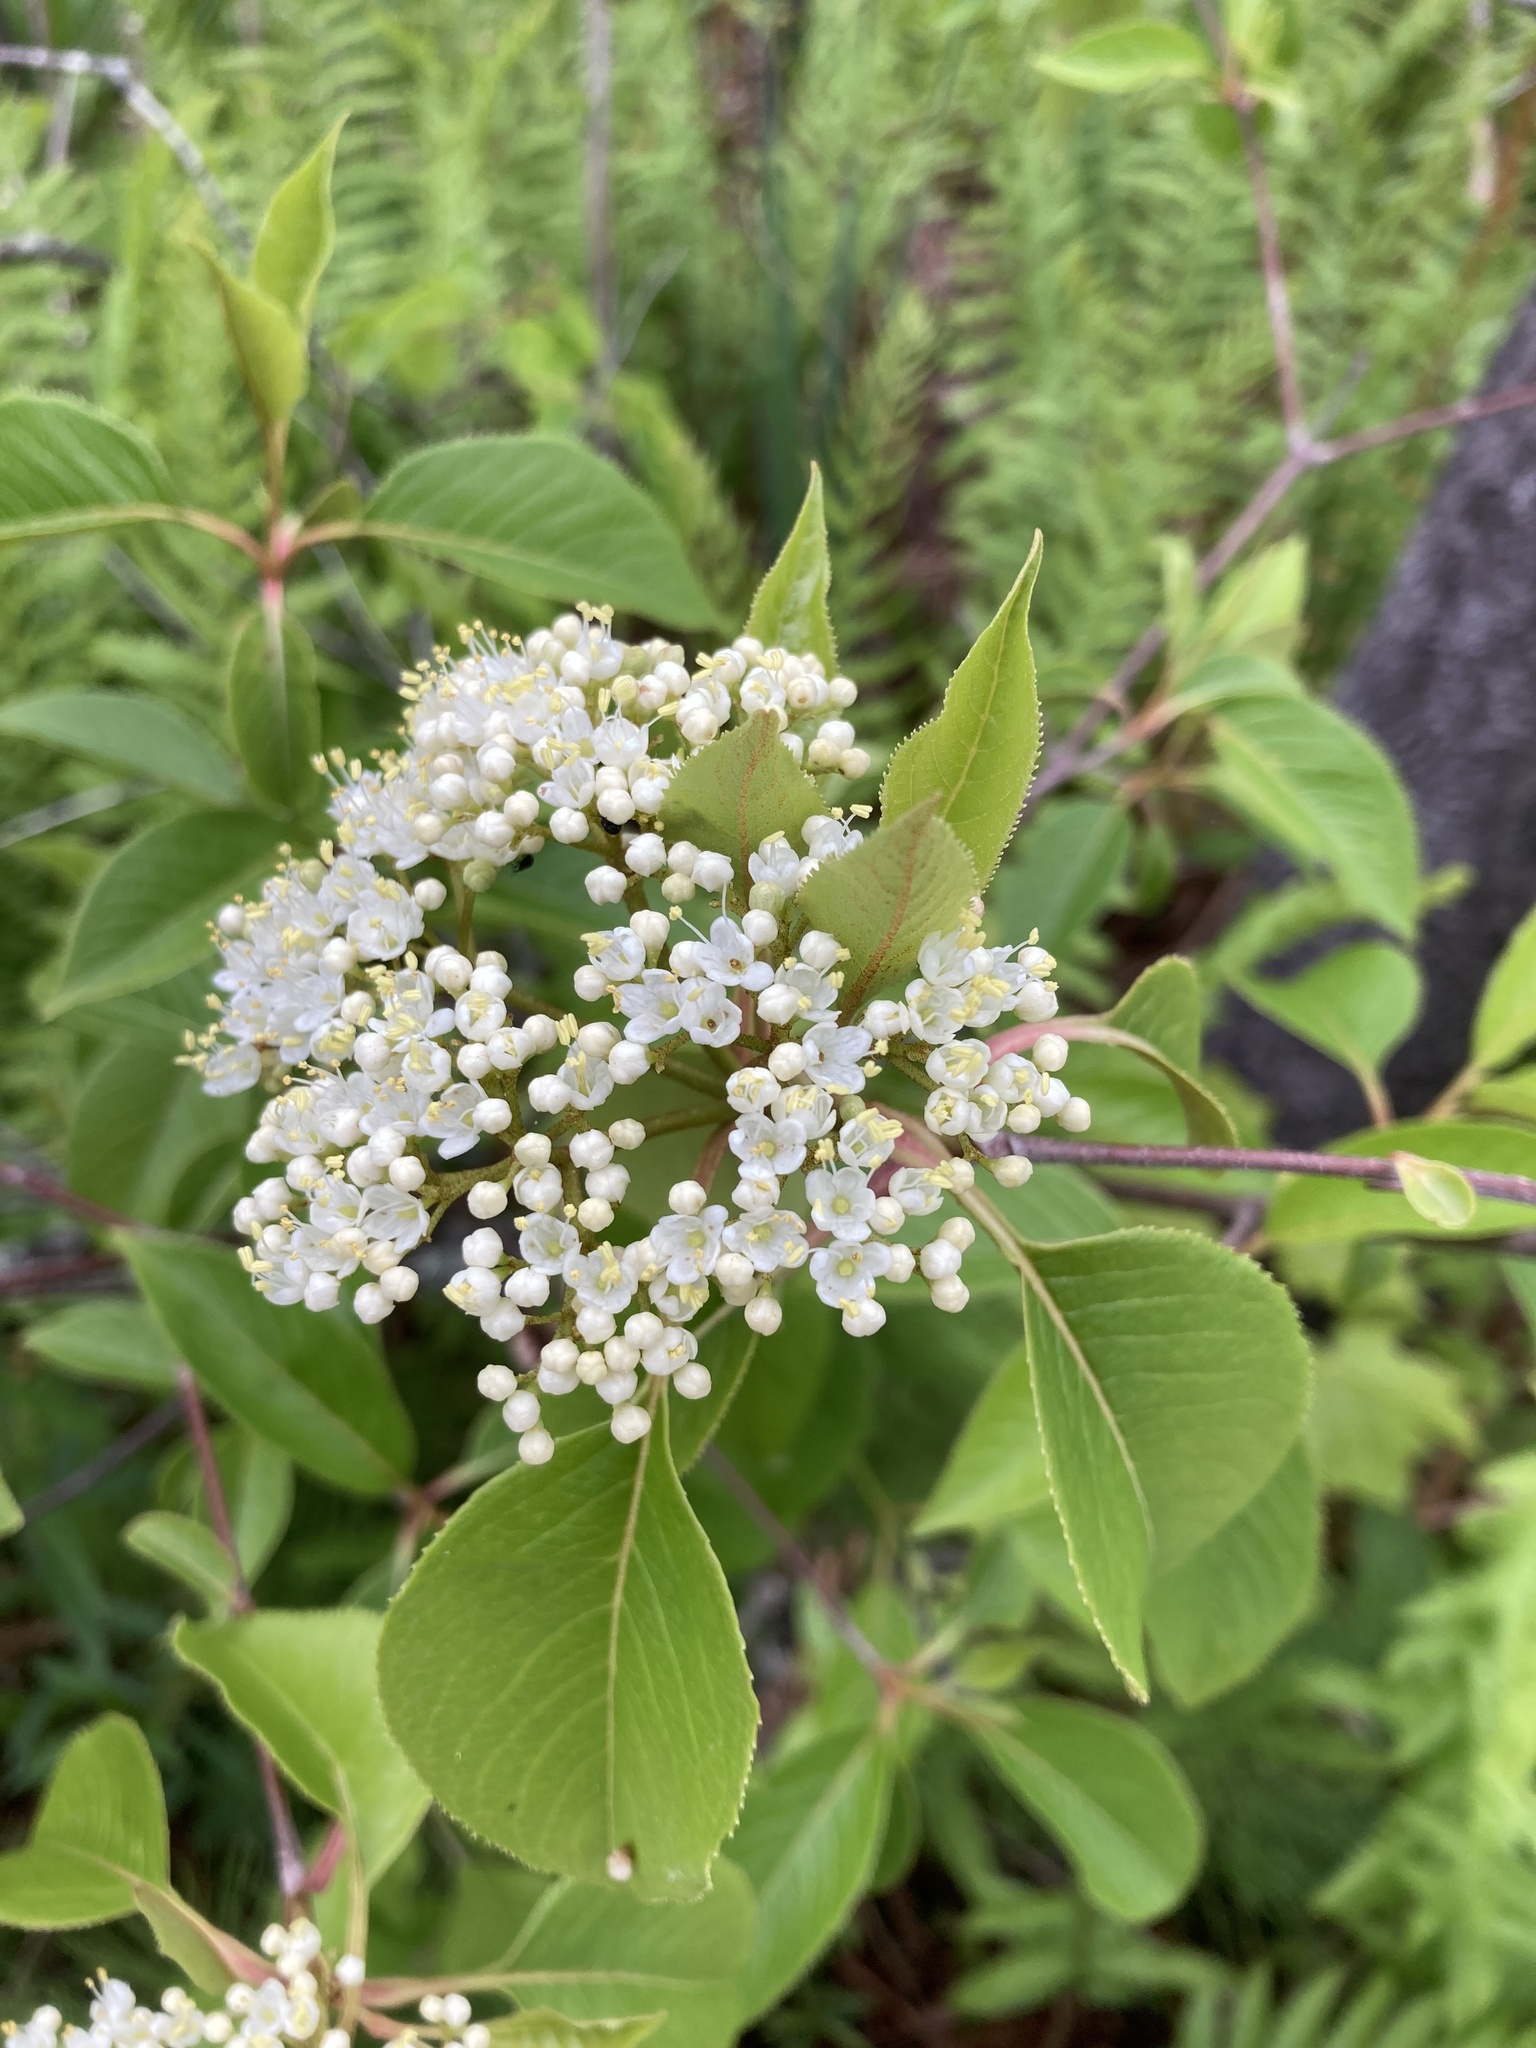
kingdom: Plantae
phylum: Tracheophyta
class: Magnoliopsida
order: Dipsacales
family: Viburnaceae
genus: Viburnum
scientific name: Viburnum lentago
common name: Black haw
